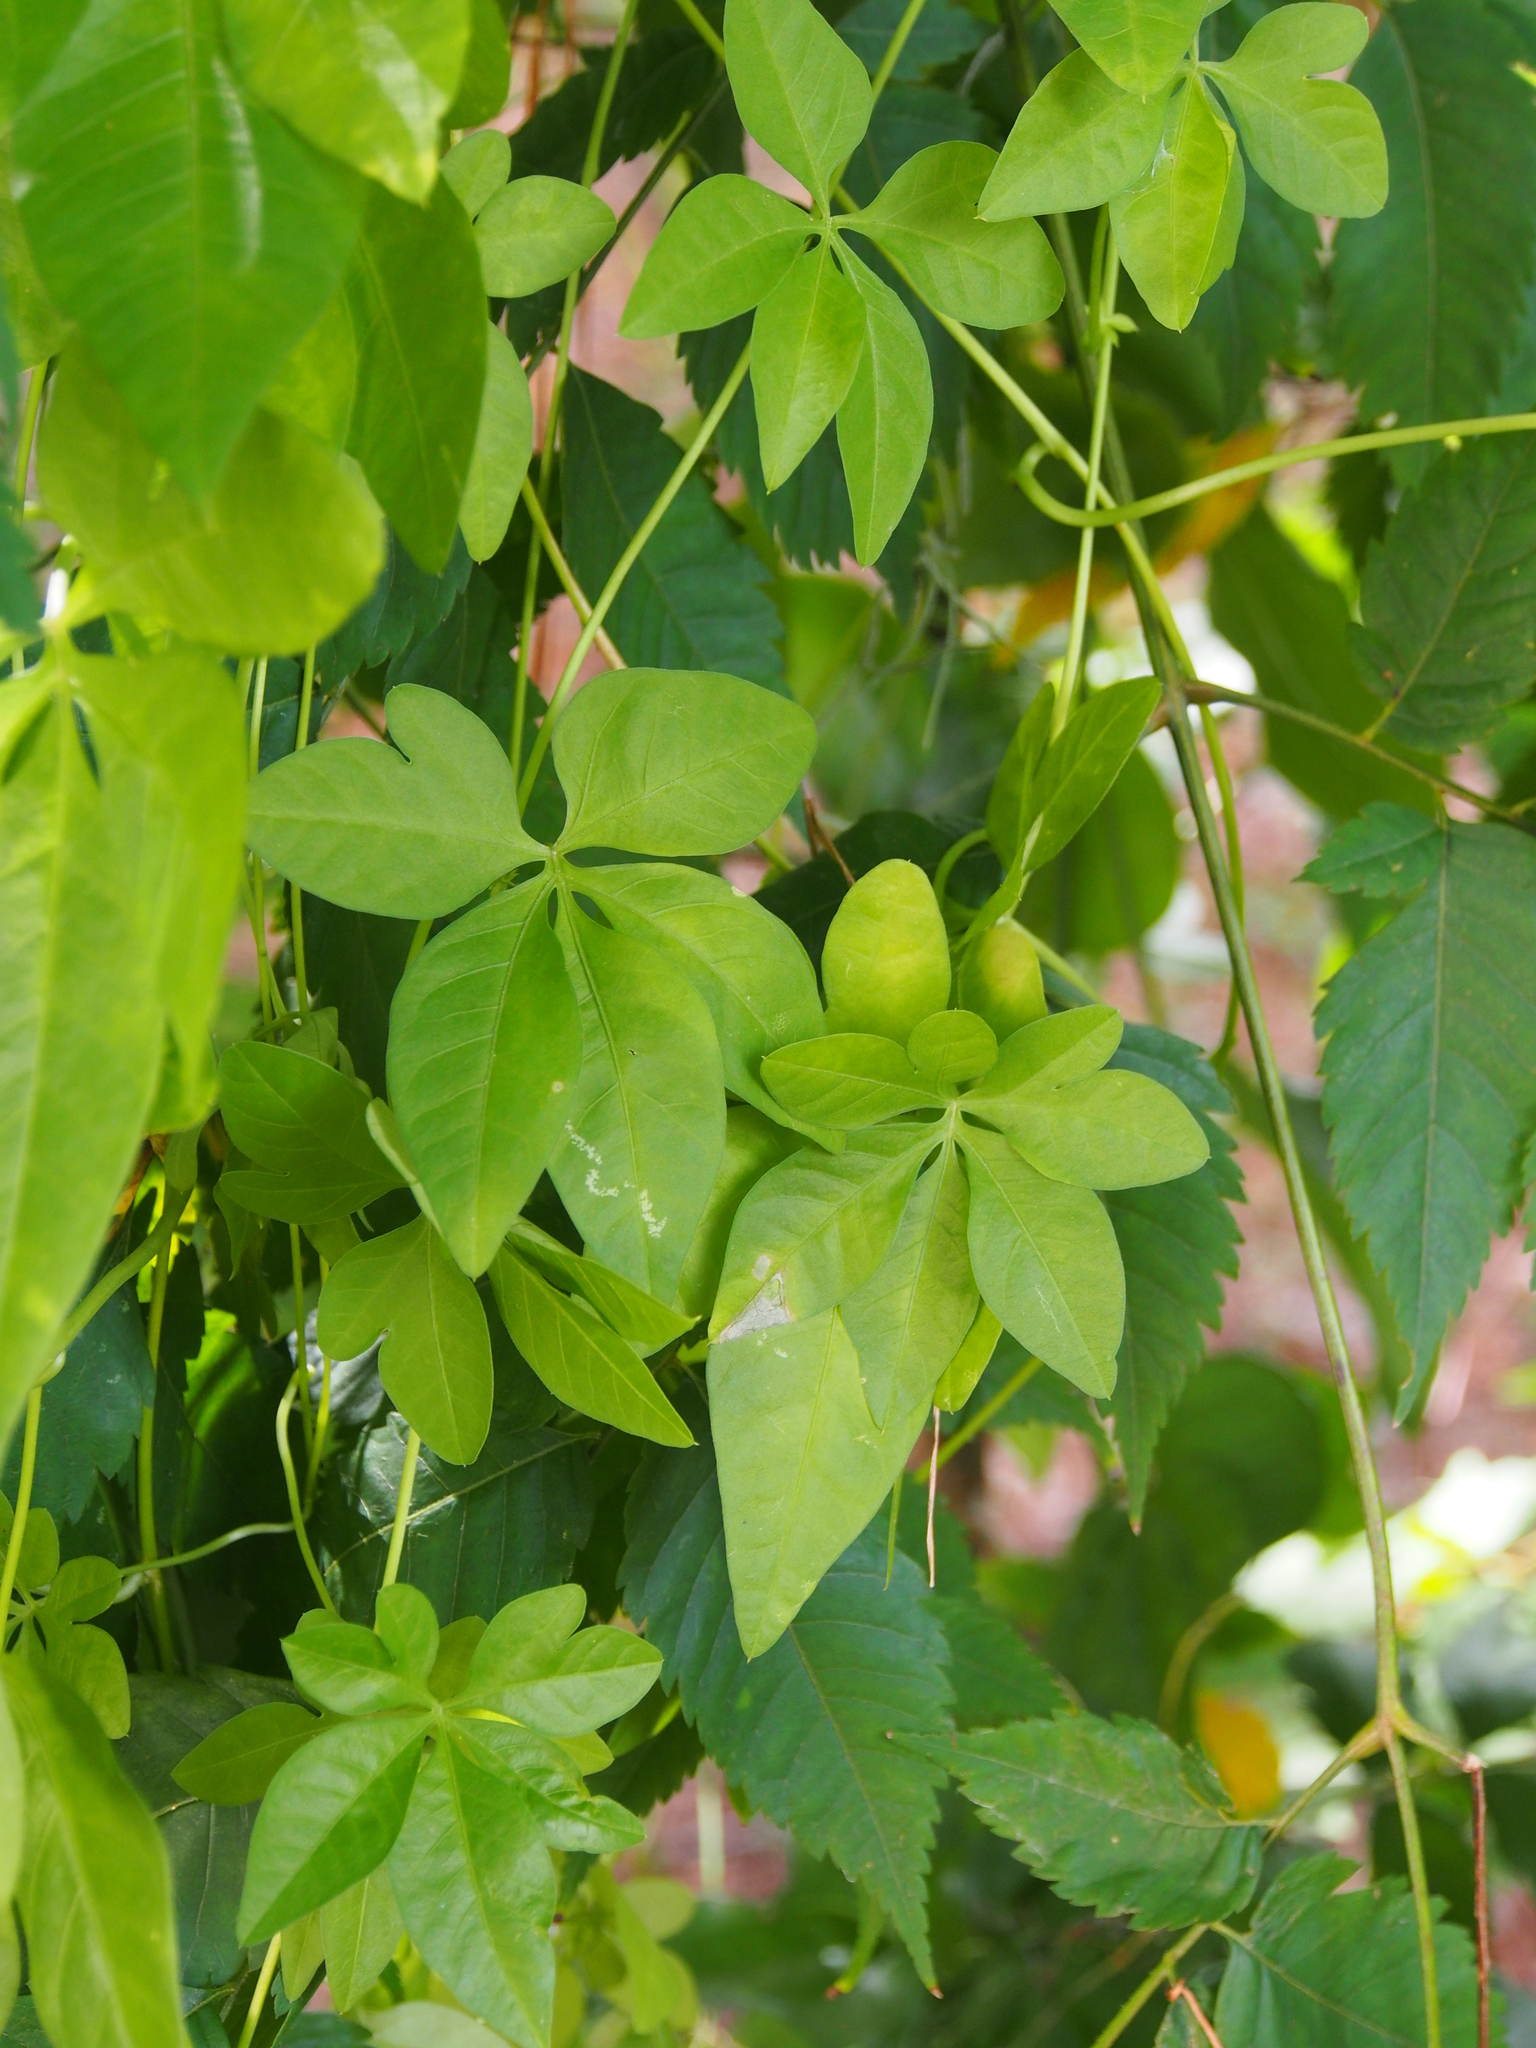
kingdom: Plantae
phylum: Tracheophyta
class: Magnoliopsida
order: Solanales
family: Convolvulaceae
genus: Ipomoea
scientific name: Ipomoea cairica
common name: Mile a minute vine
